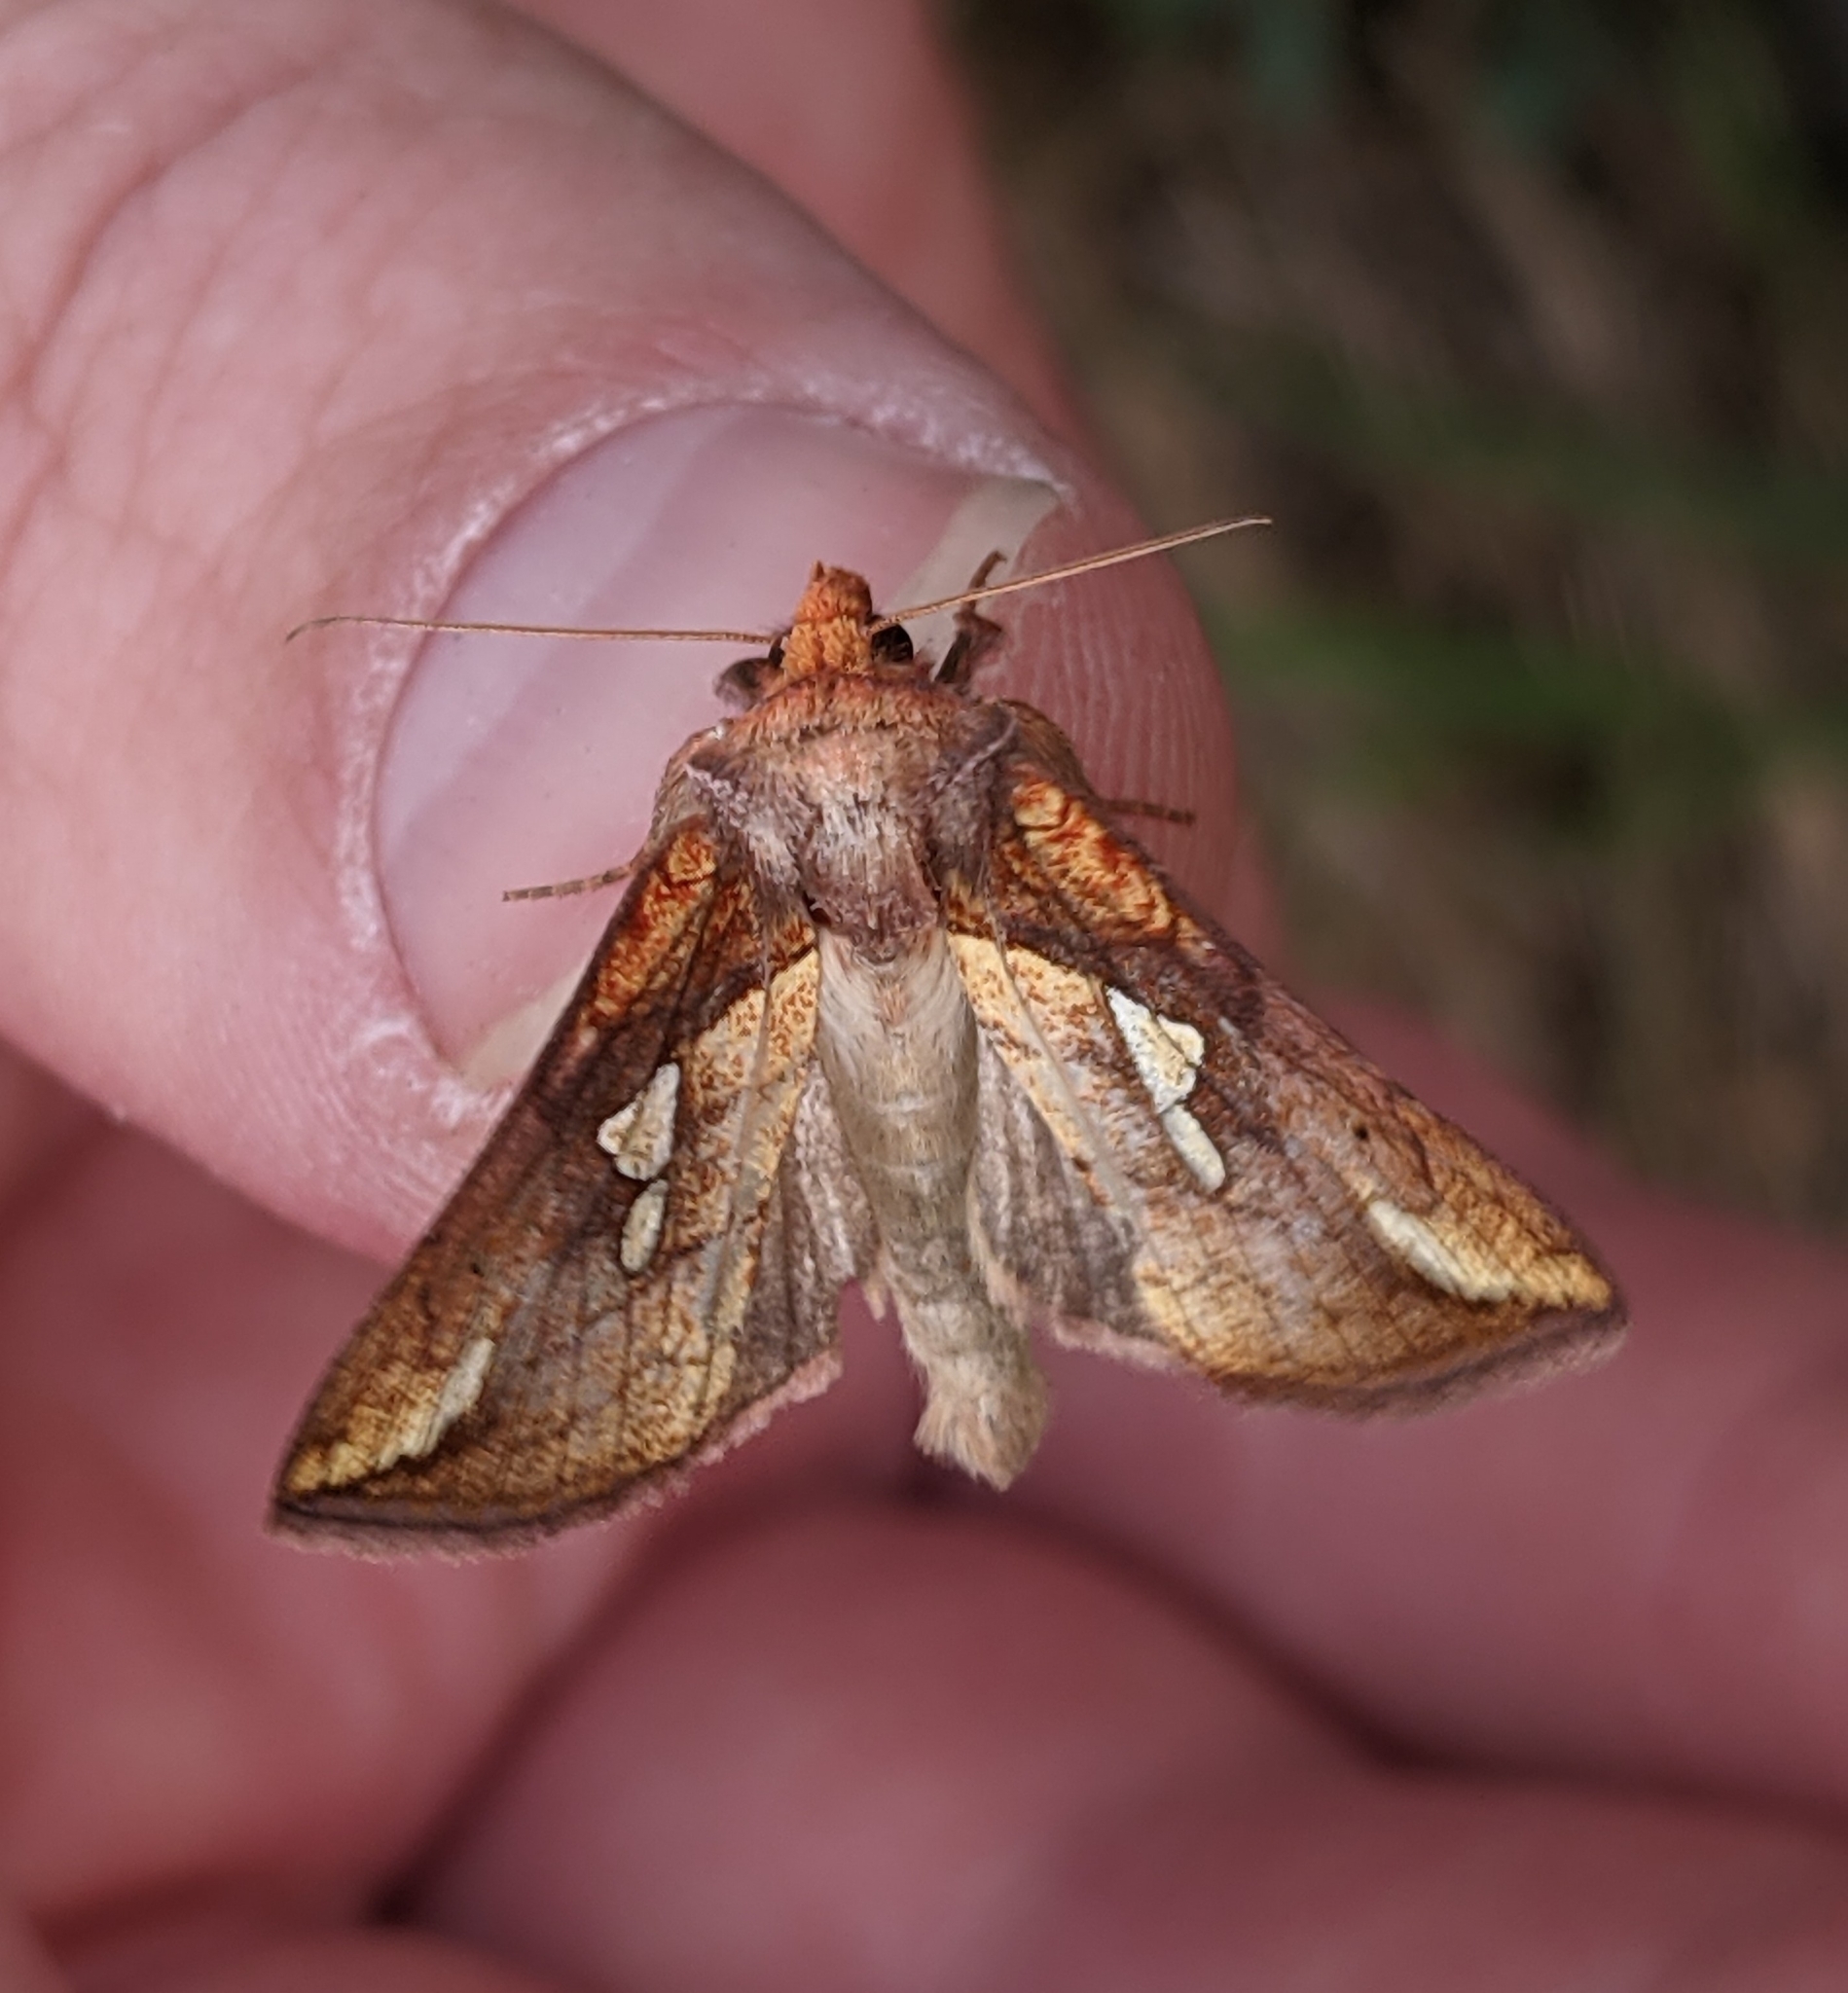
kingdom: Animalia
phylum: Arthropoda
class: Insecta
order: Lepidoptera
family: Noctuidae
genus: Plusia
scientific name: Plusia putnami
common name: Lempke's gold spot
